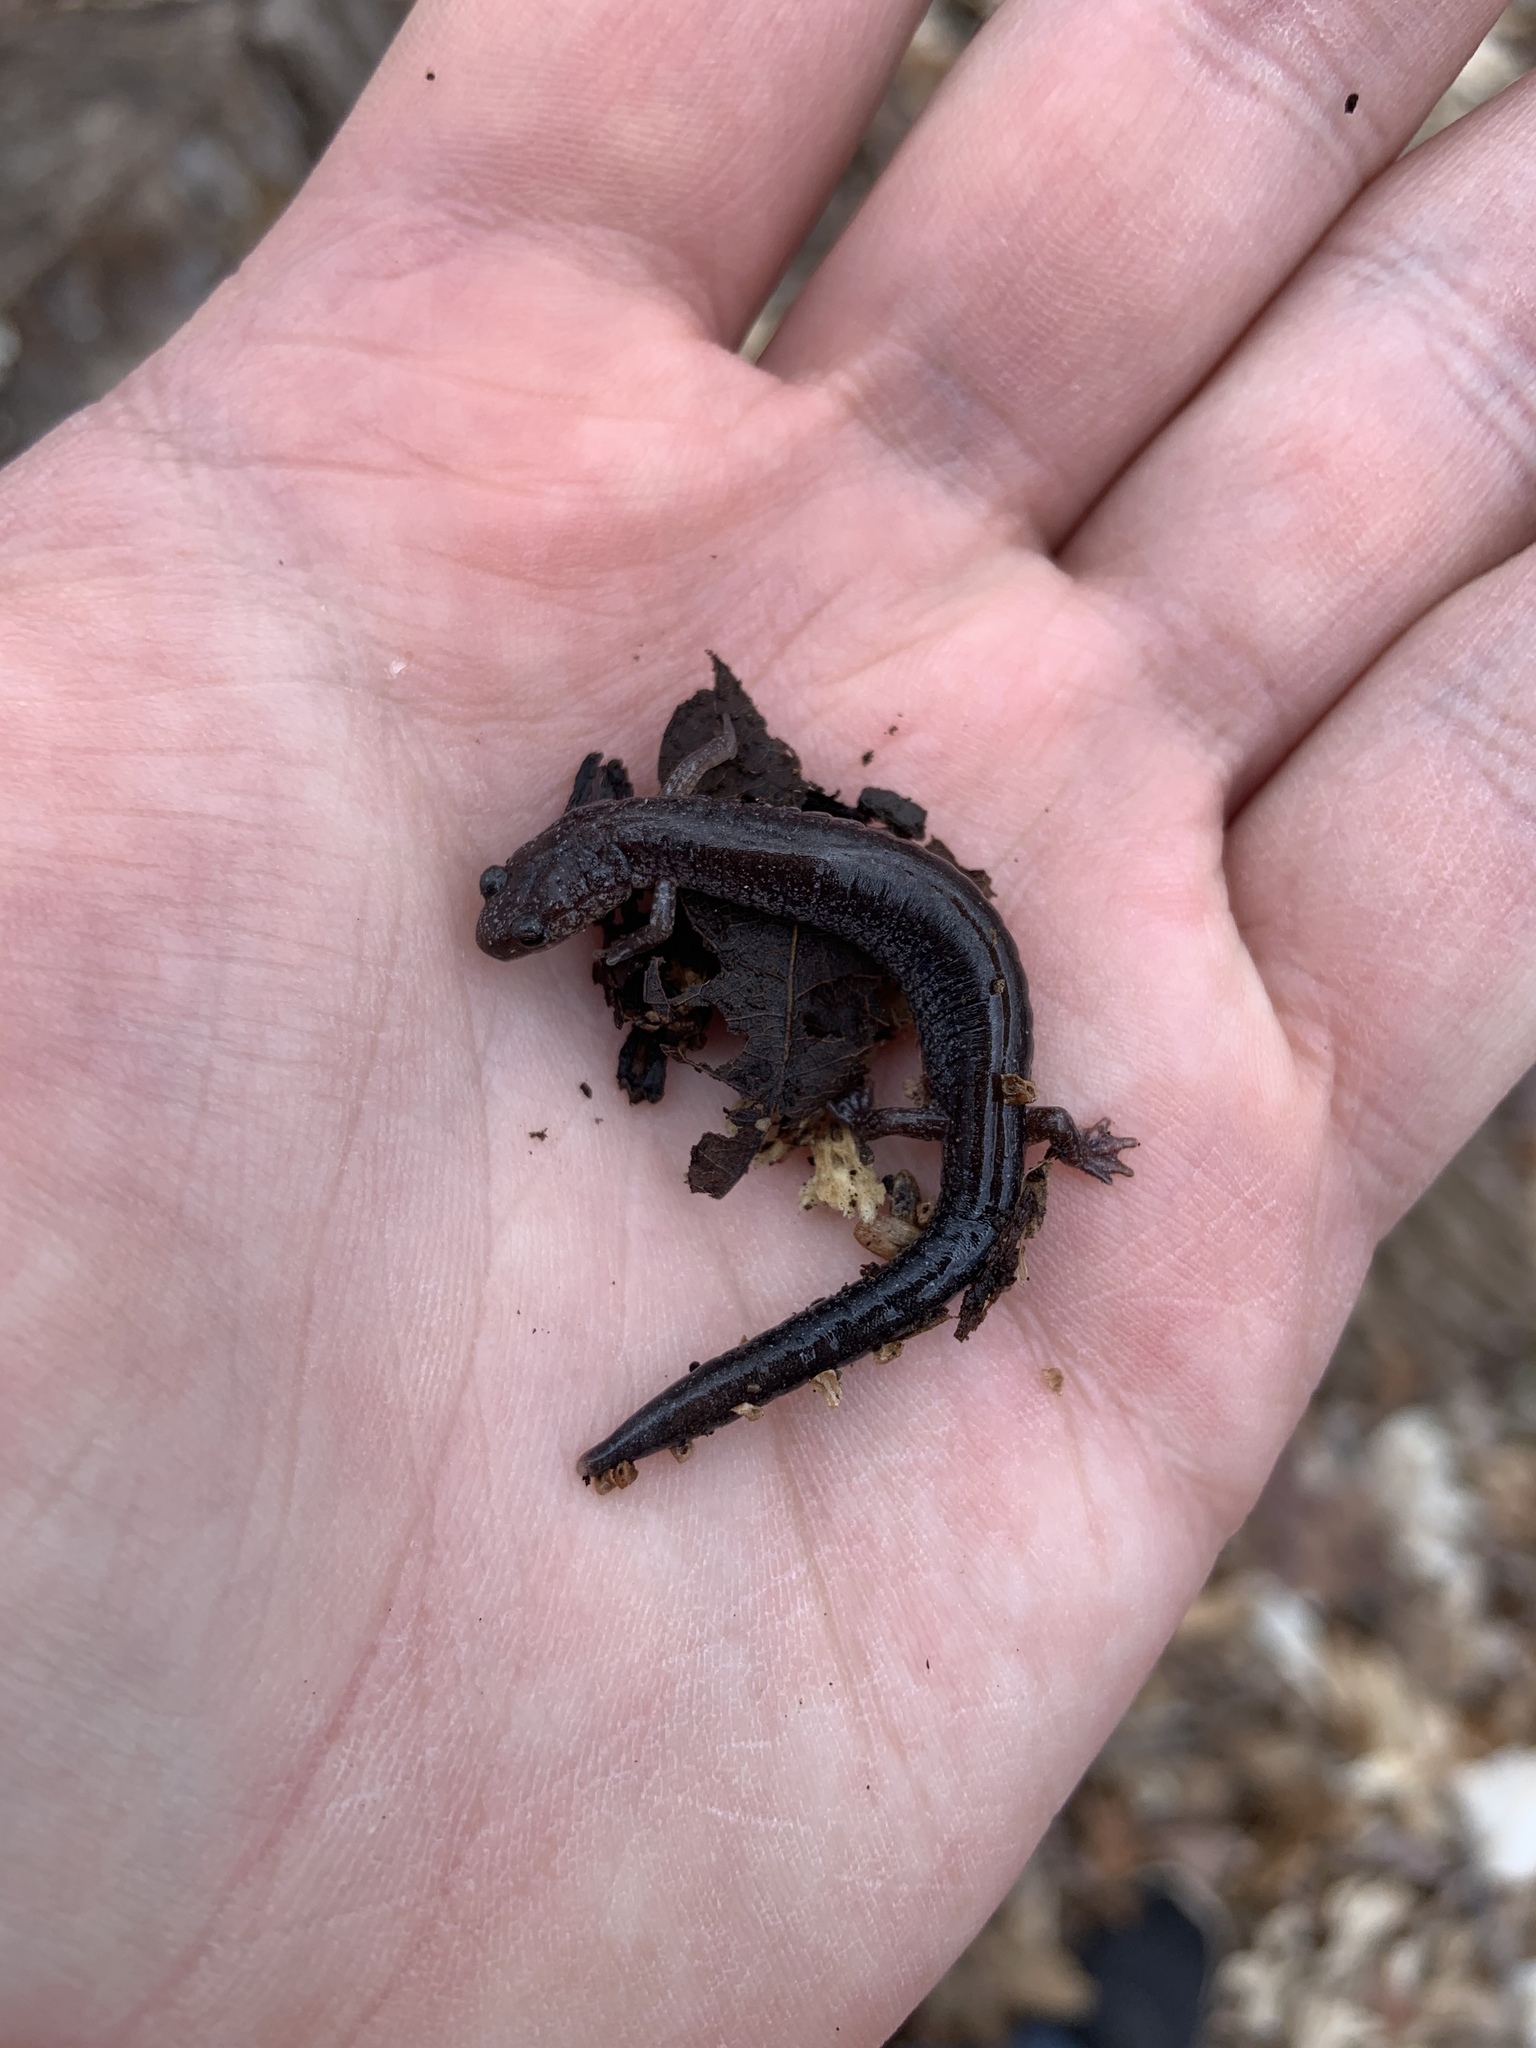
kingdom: Animalia
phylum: Chordata
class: Amphibia
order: Caudata
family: Plethodontidae
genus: Plethodon
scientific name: Plethodon cinereus
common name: Redback salamander
